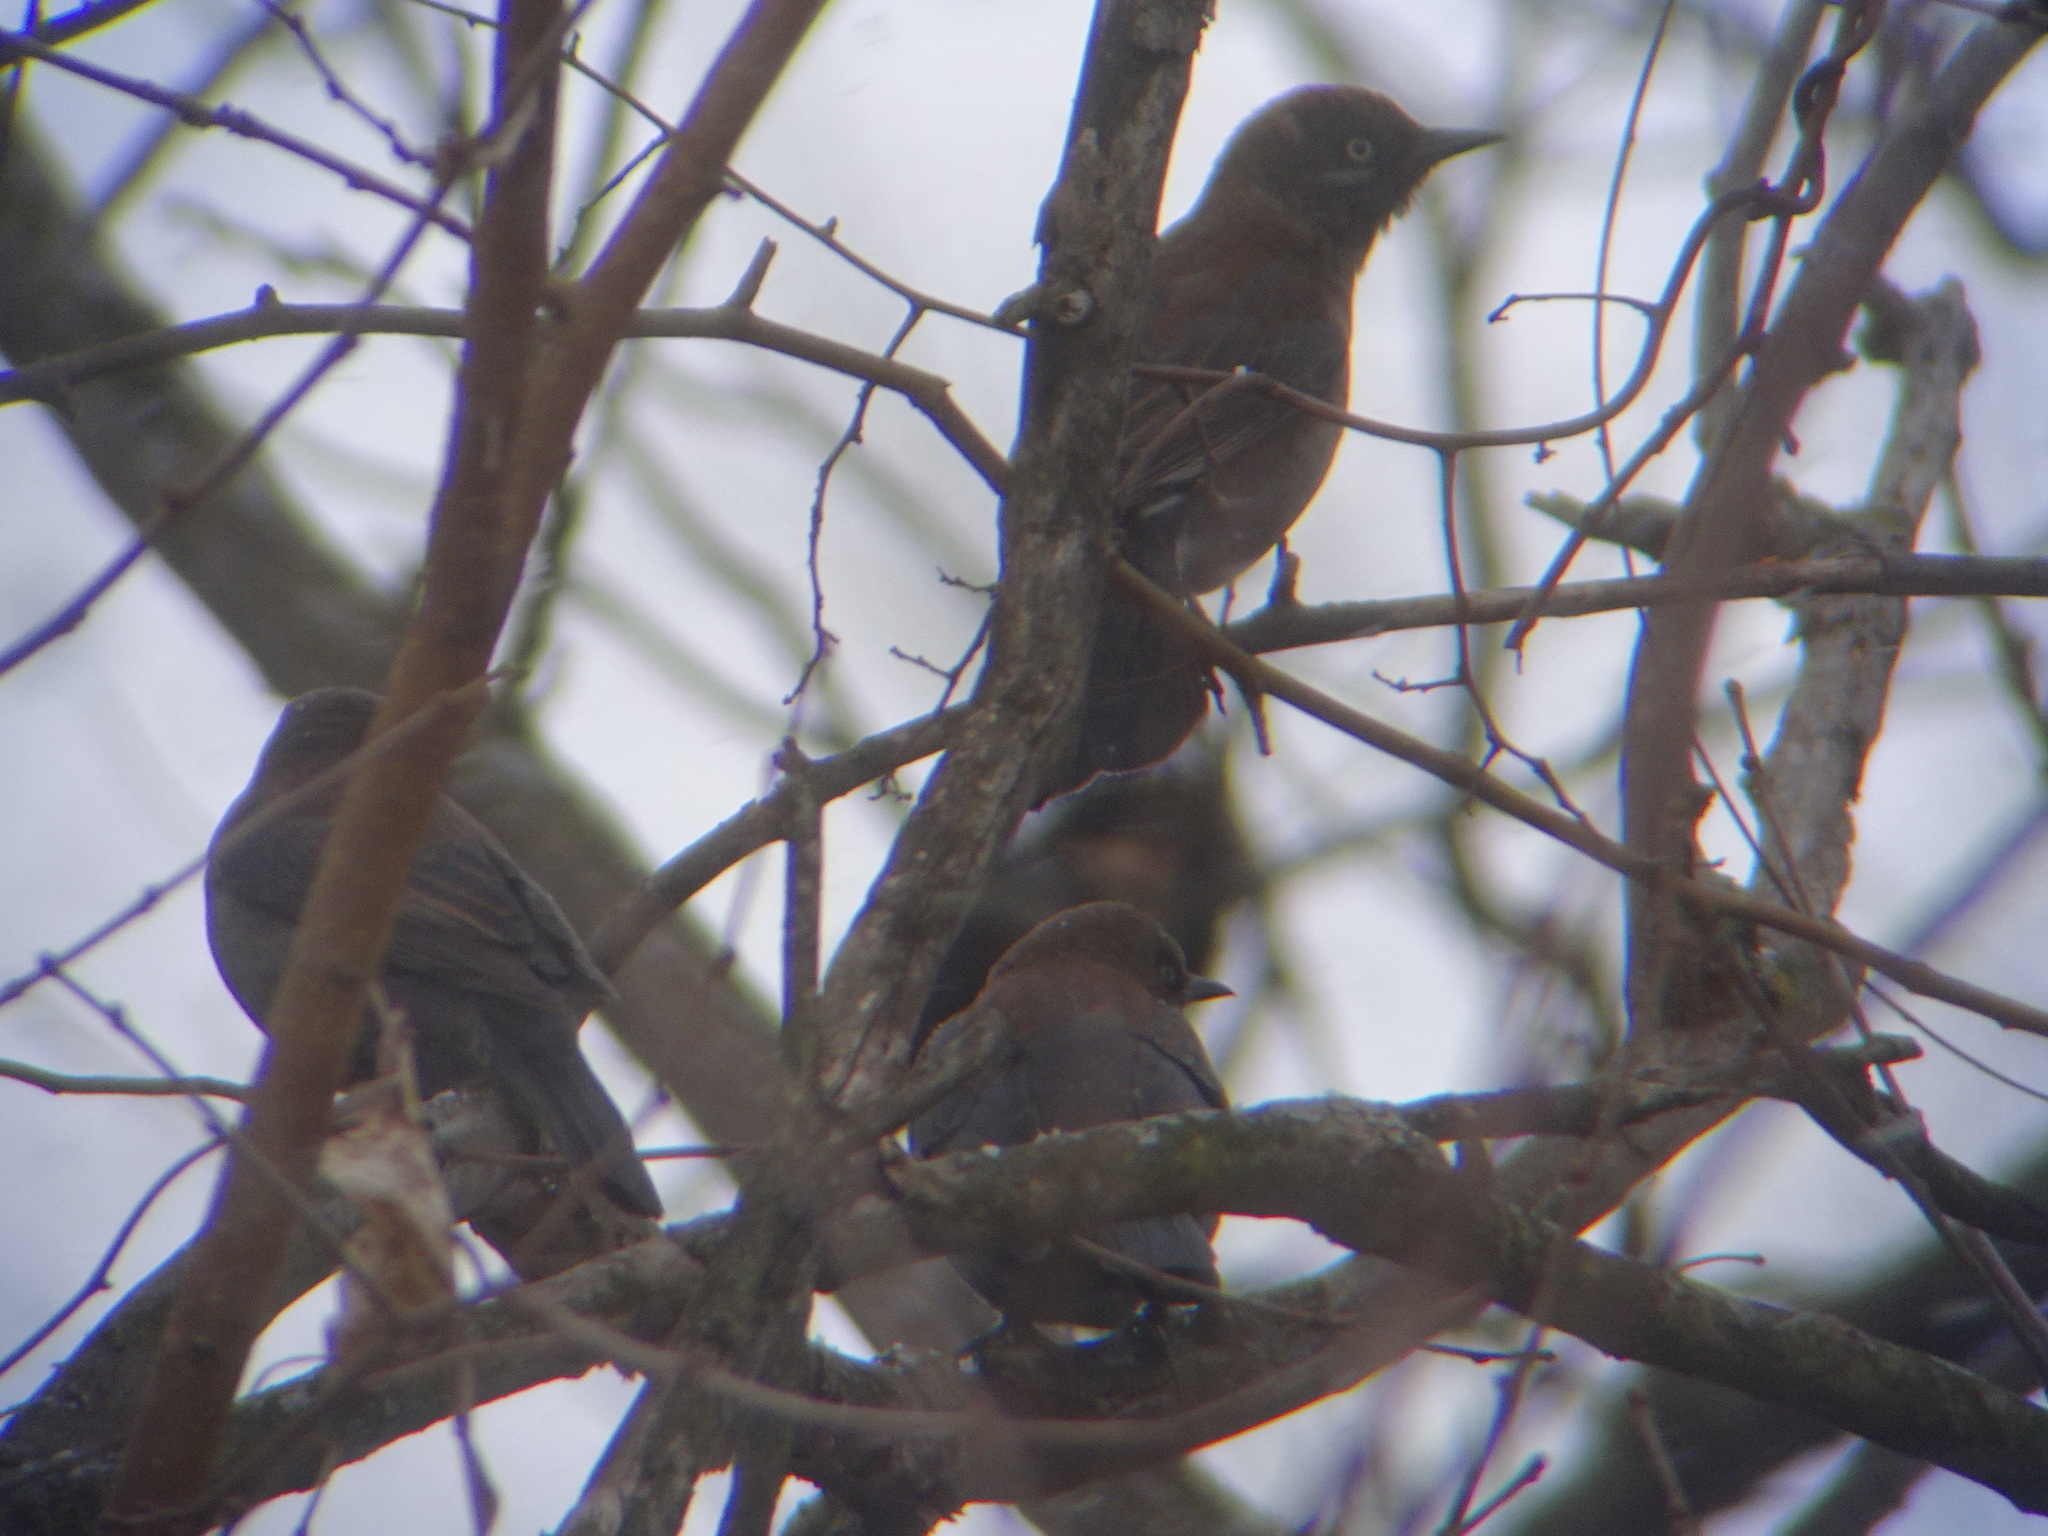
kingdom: Animalia
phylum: Chordata
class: Aves
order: Passeriformes
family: Icteridae
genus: Euphagus
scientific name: Euphagus carolinus
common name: Rusty blackbird
